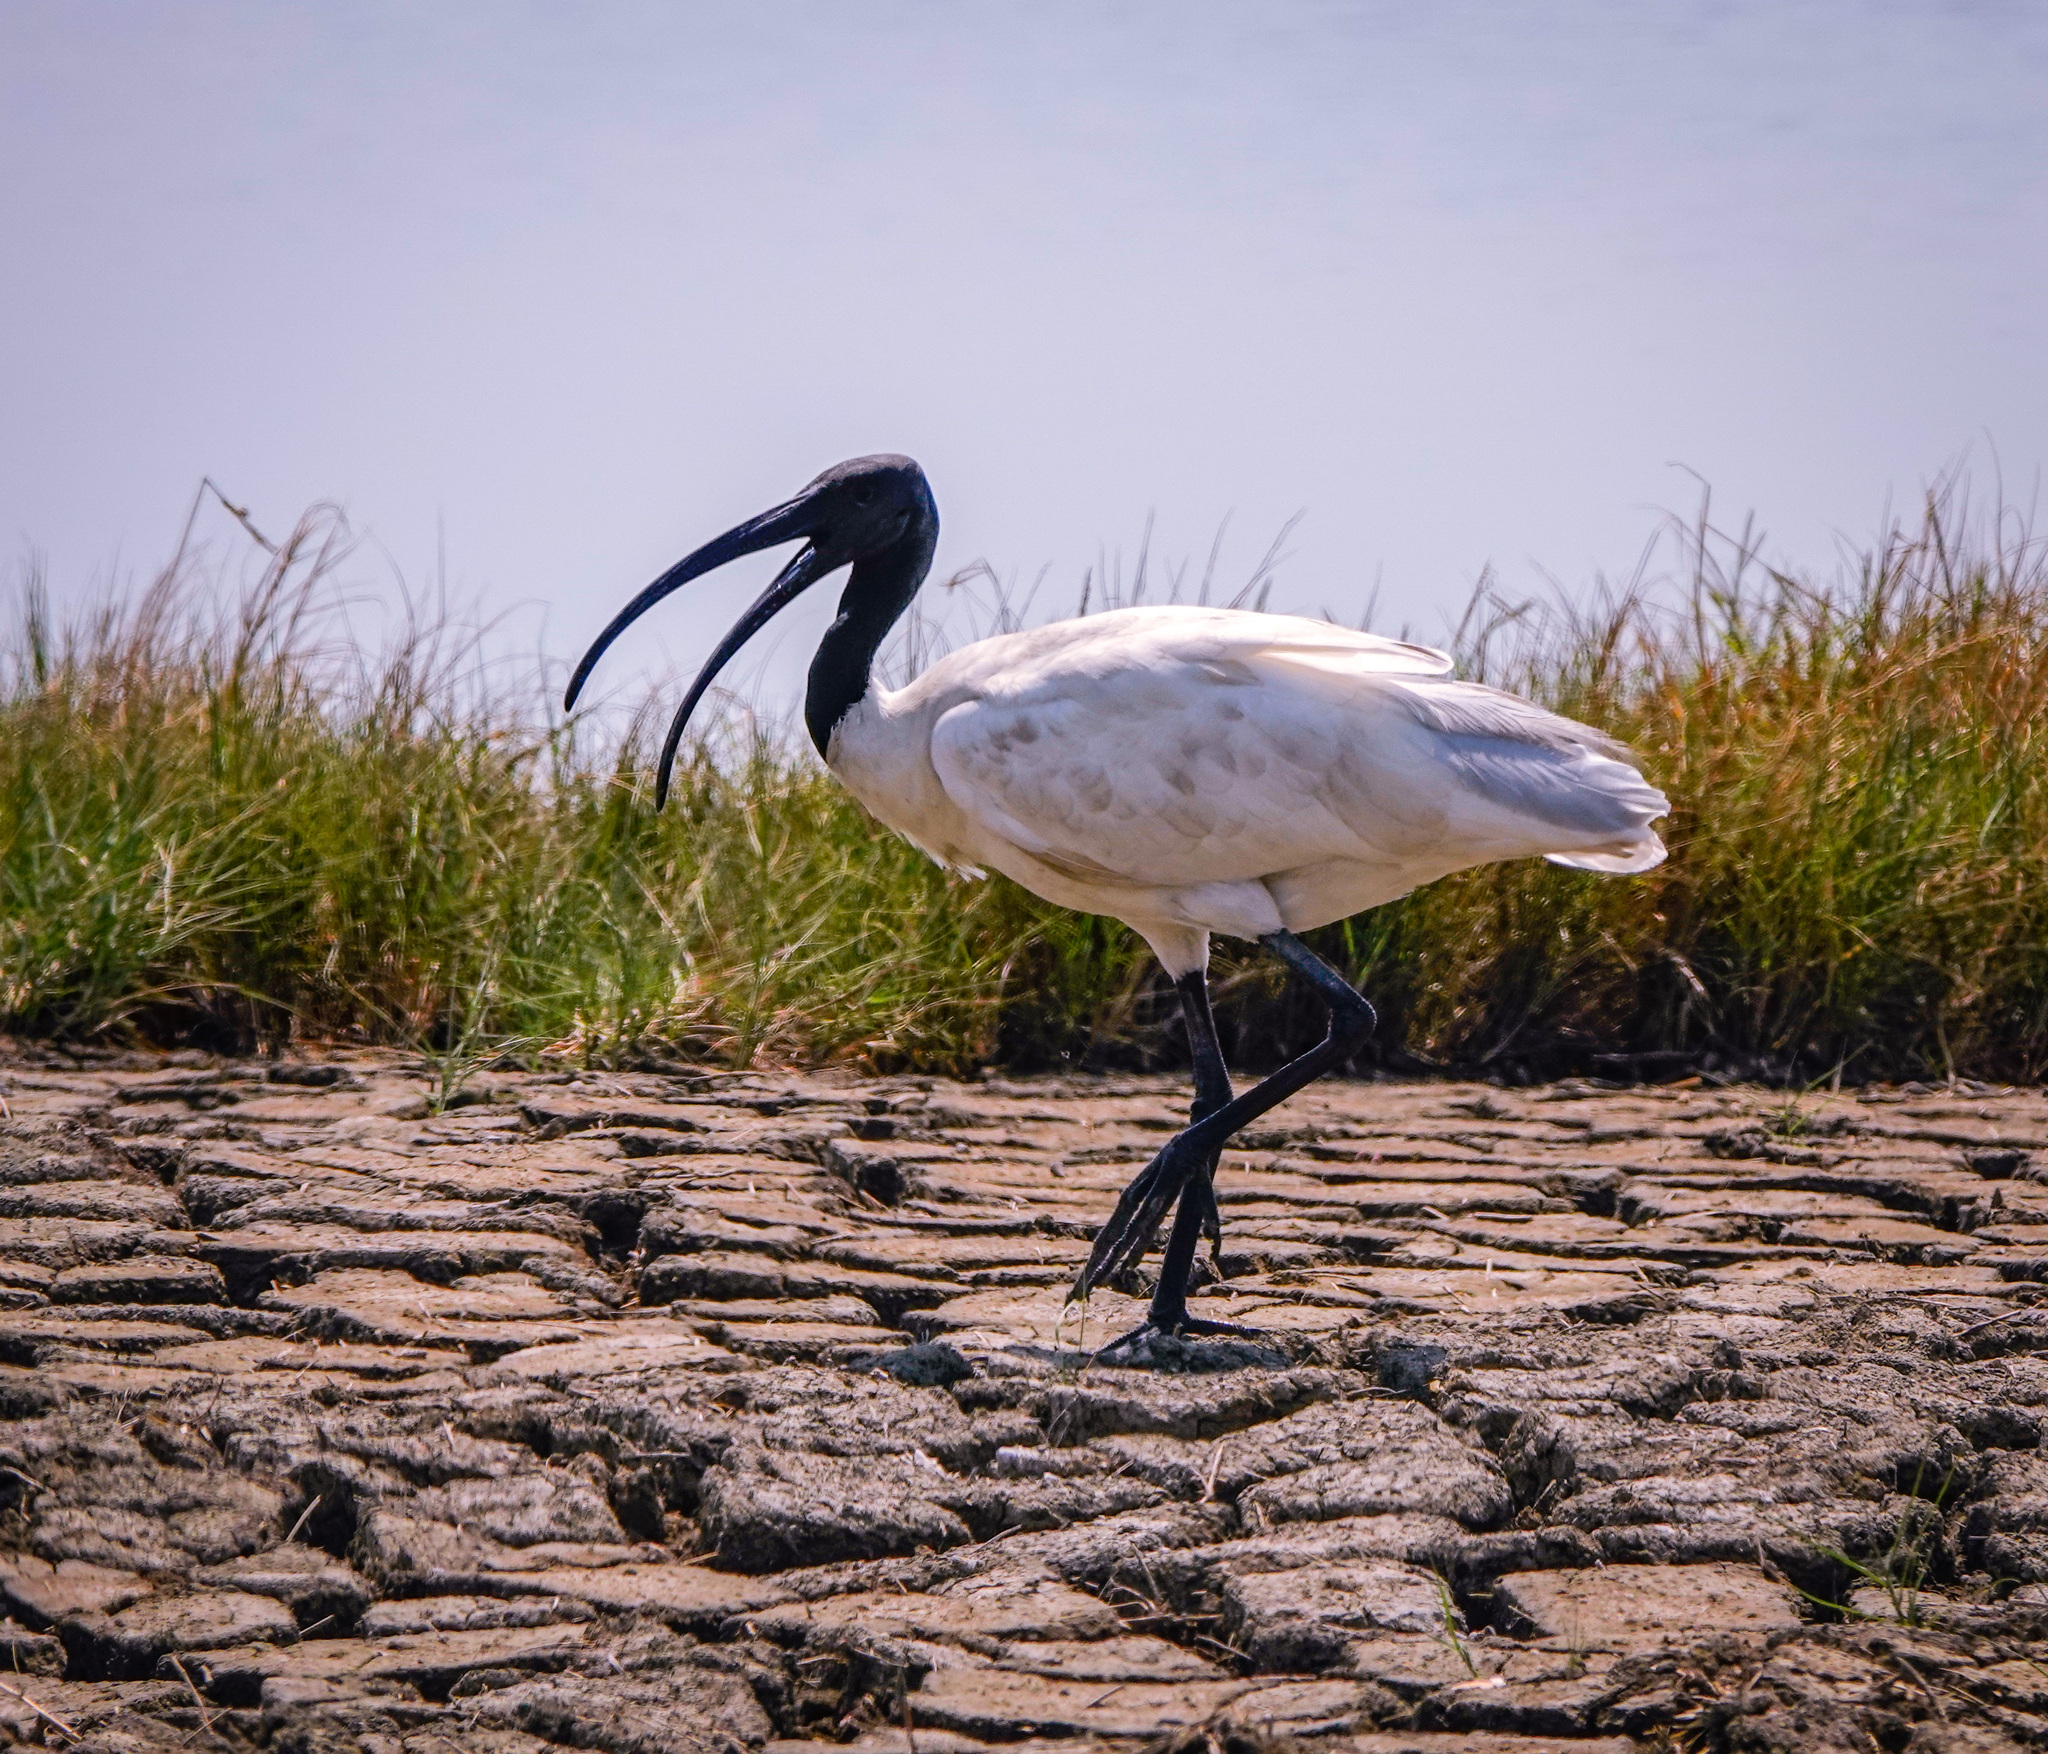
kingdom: Animalia
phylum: Chordata
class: Aves
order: Pelecaniformes
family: Threskiornithidae
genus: Threskiornis
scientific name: Threskiornis melanocephalus
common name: Black-headed ibis
